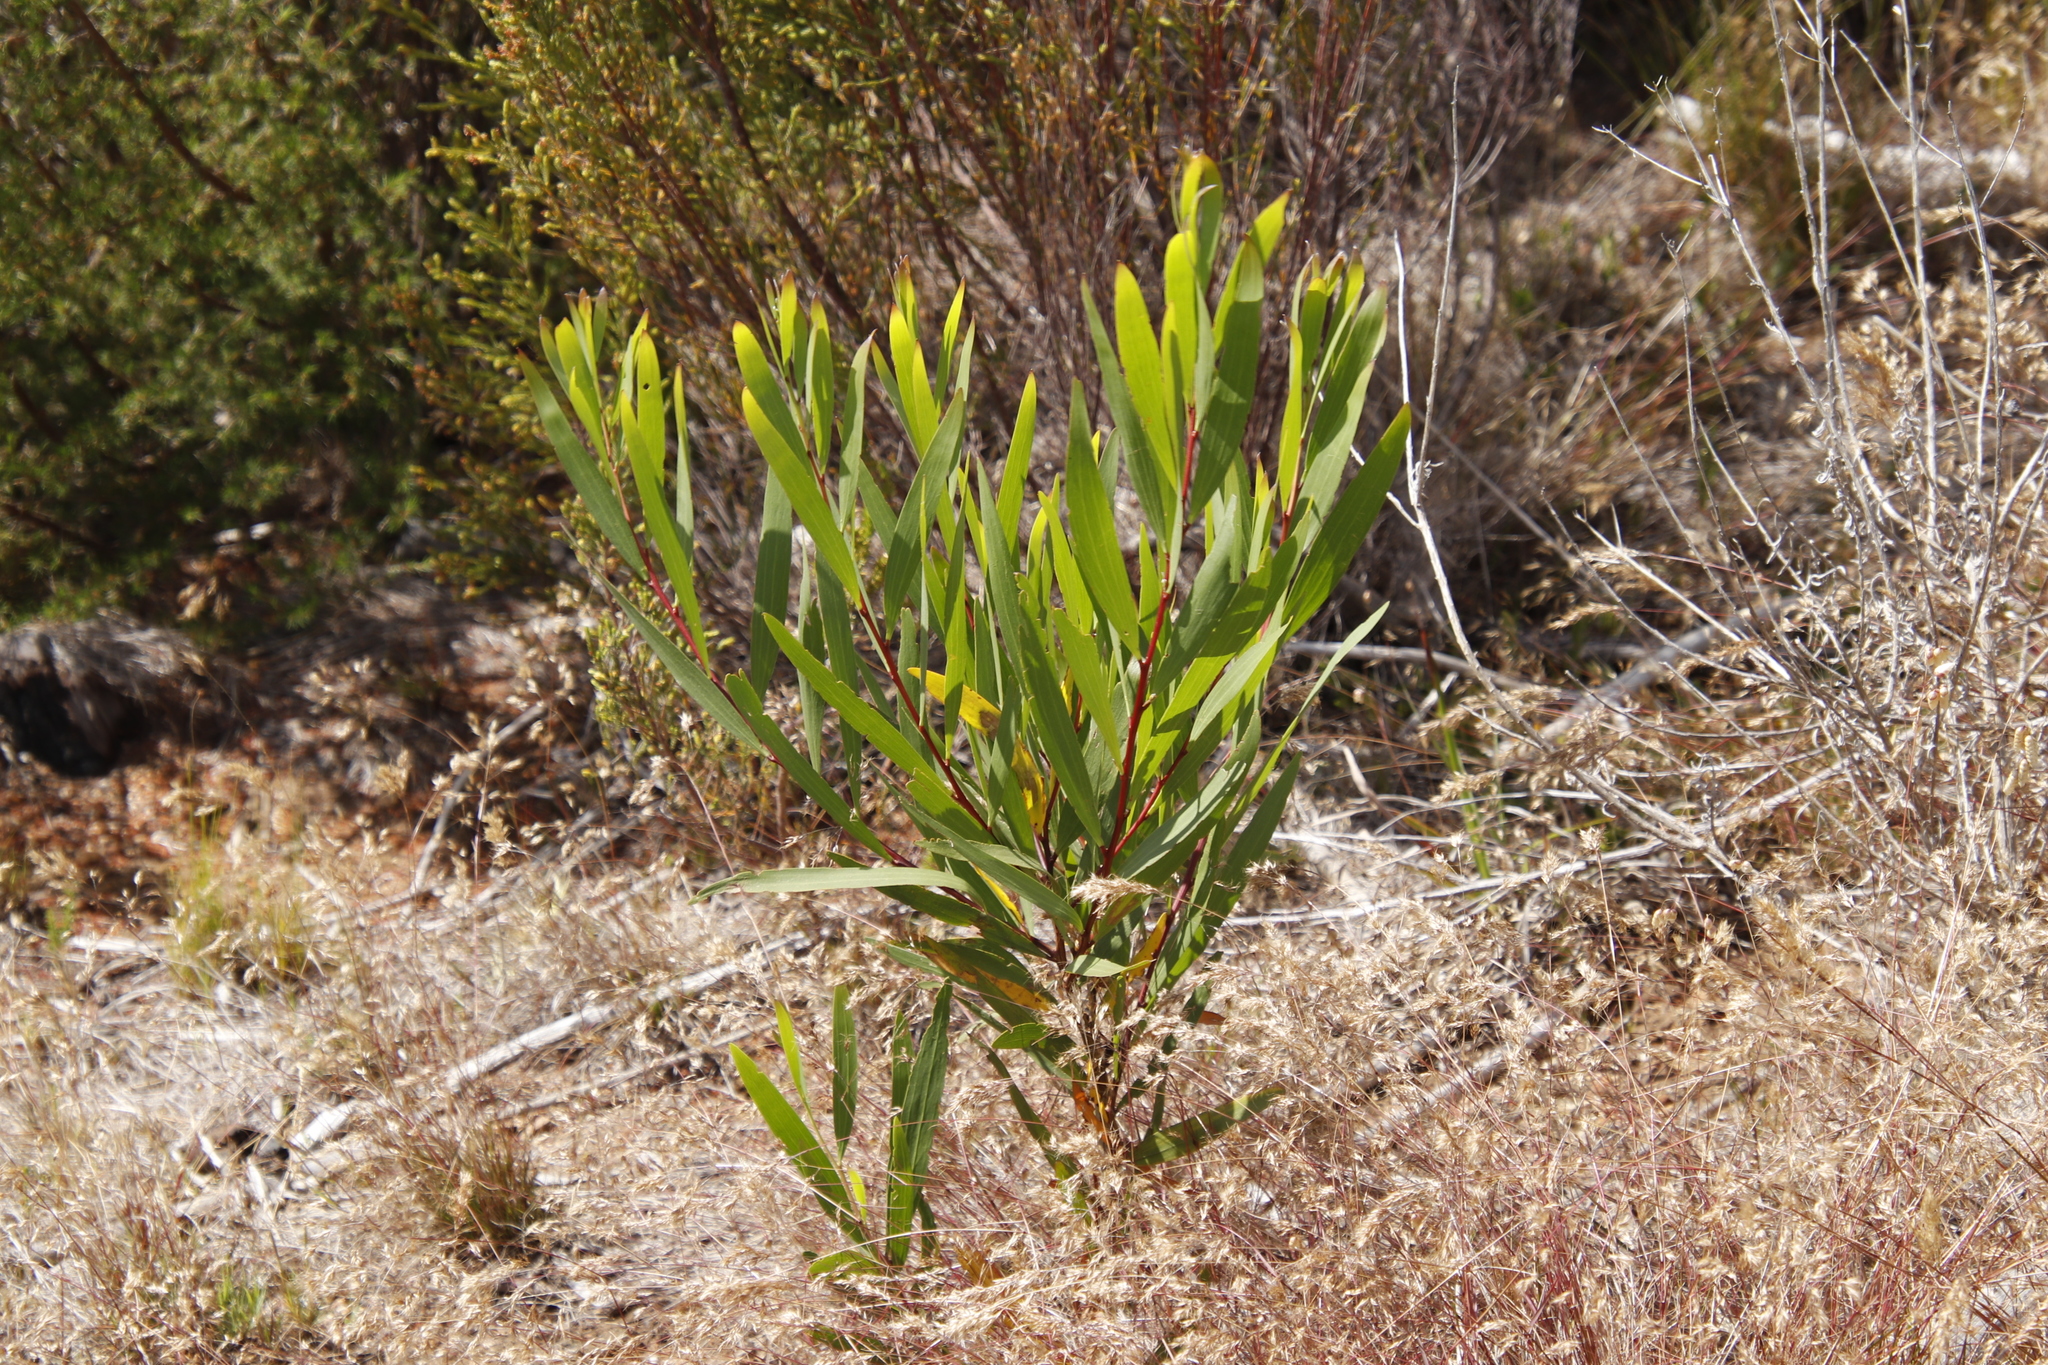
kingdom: Plantae
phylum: Tracheophyta
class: Magnoliopsida
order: Fabales
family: Fabaceae
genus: Acacia
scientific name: Acacia longifolia
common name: Sydney golden wattle
